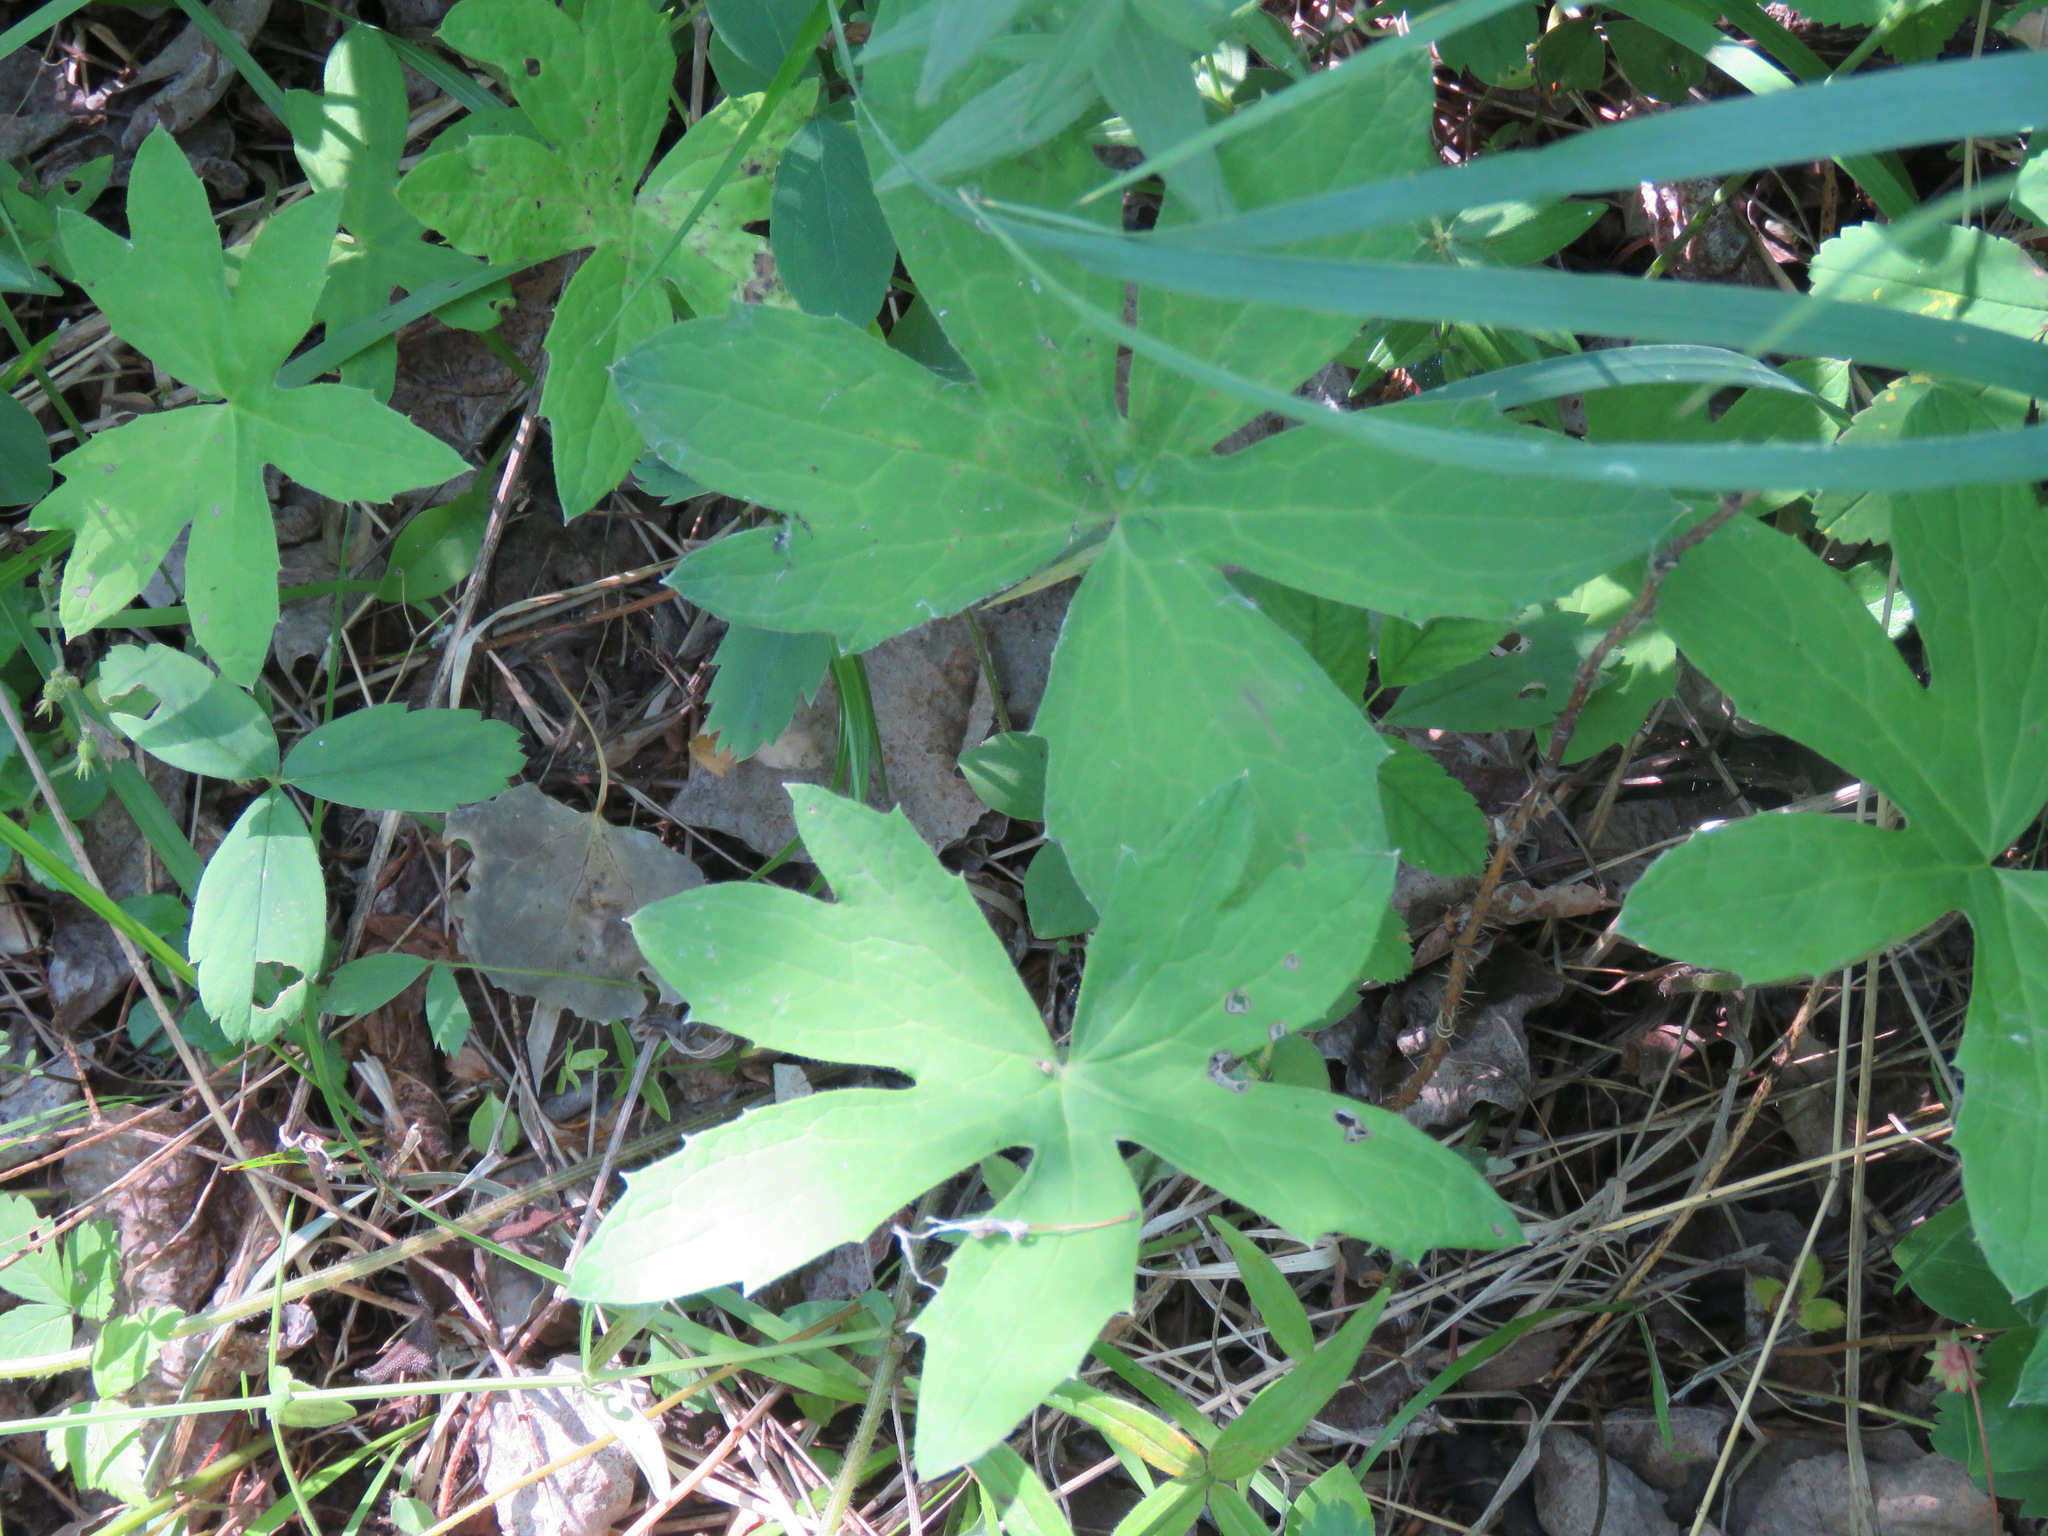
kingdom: Plantae
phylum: Tracheophyta
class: Magnoliopsida
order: Asterales
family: Asteraceae
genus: Petasites
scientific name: Petasites frigidus
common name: Arctic butterbur
